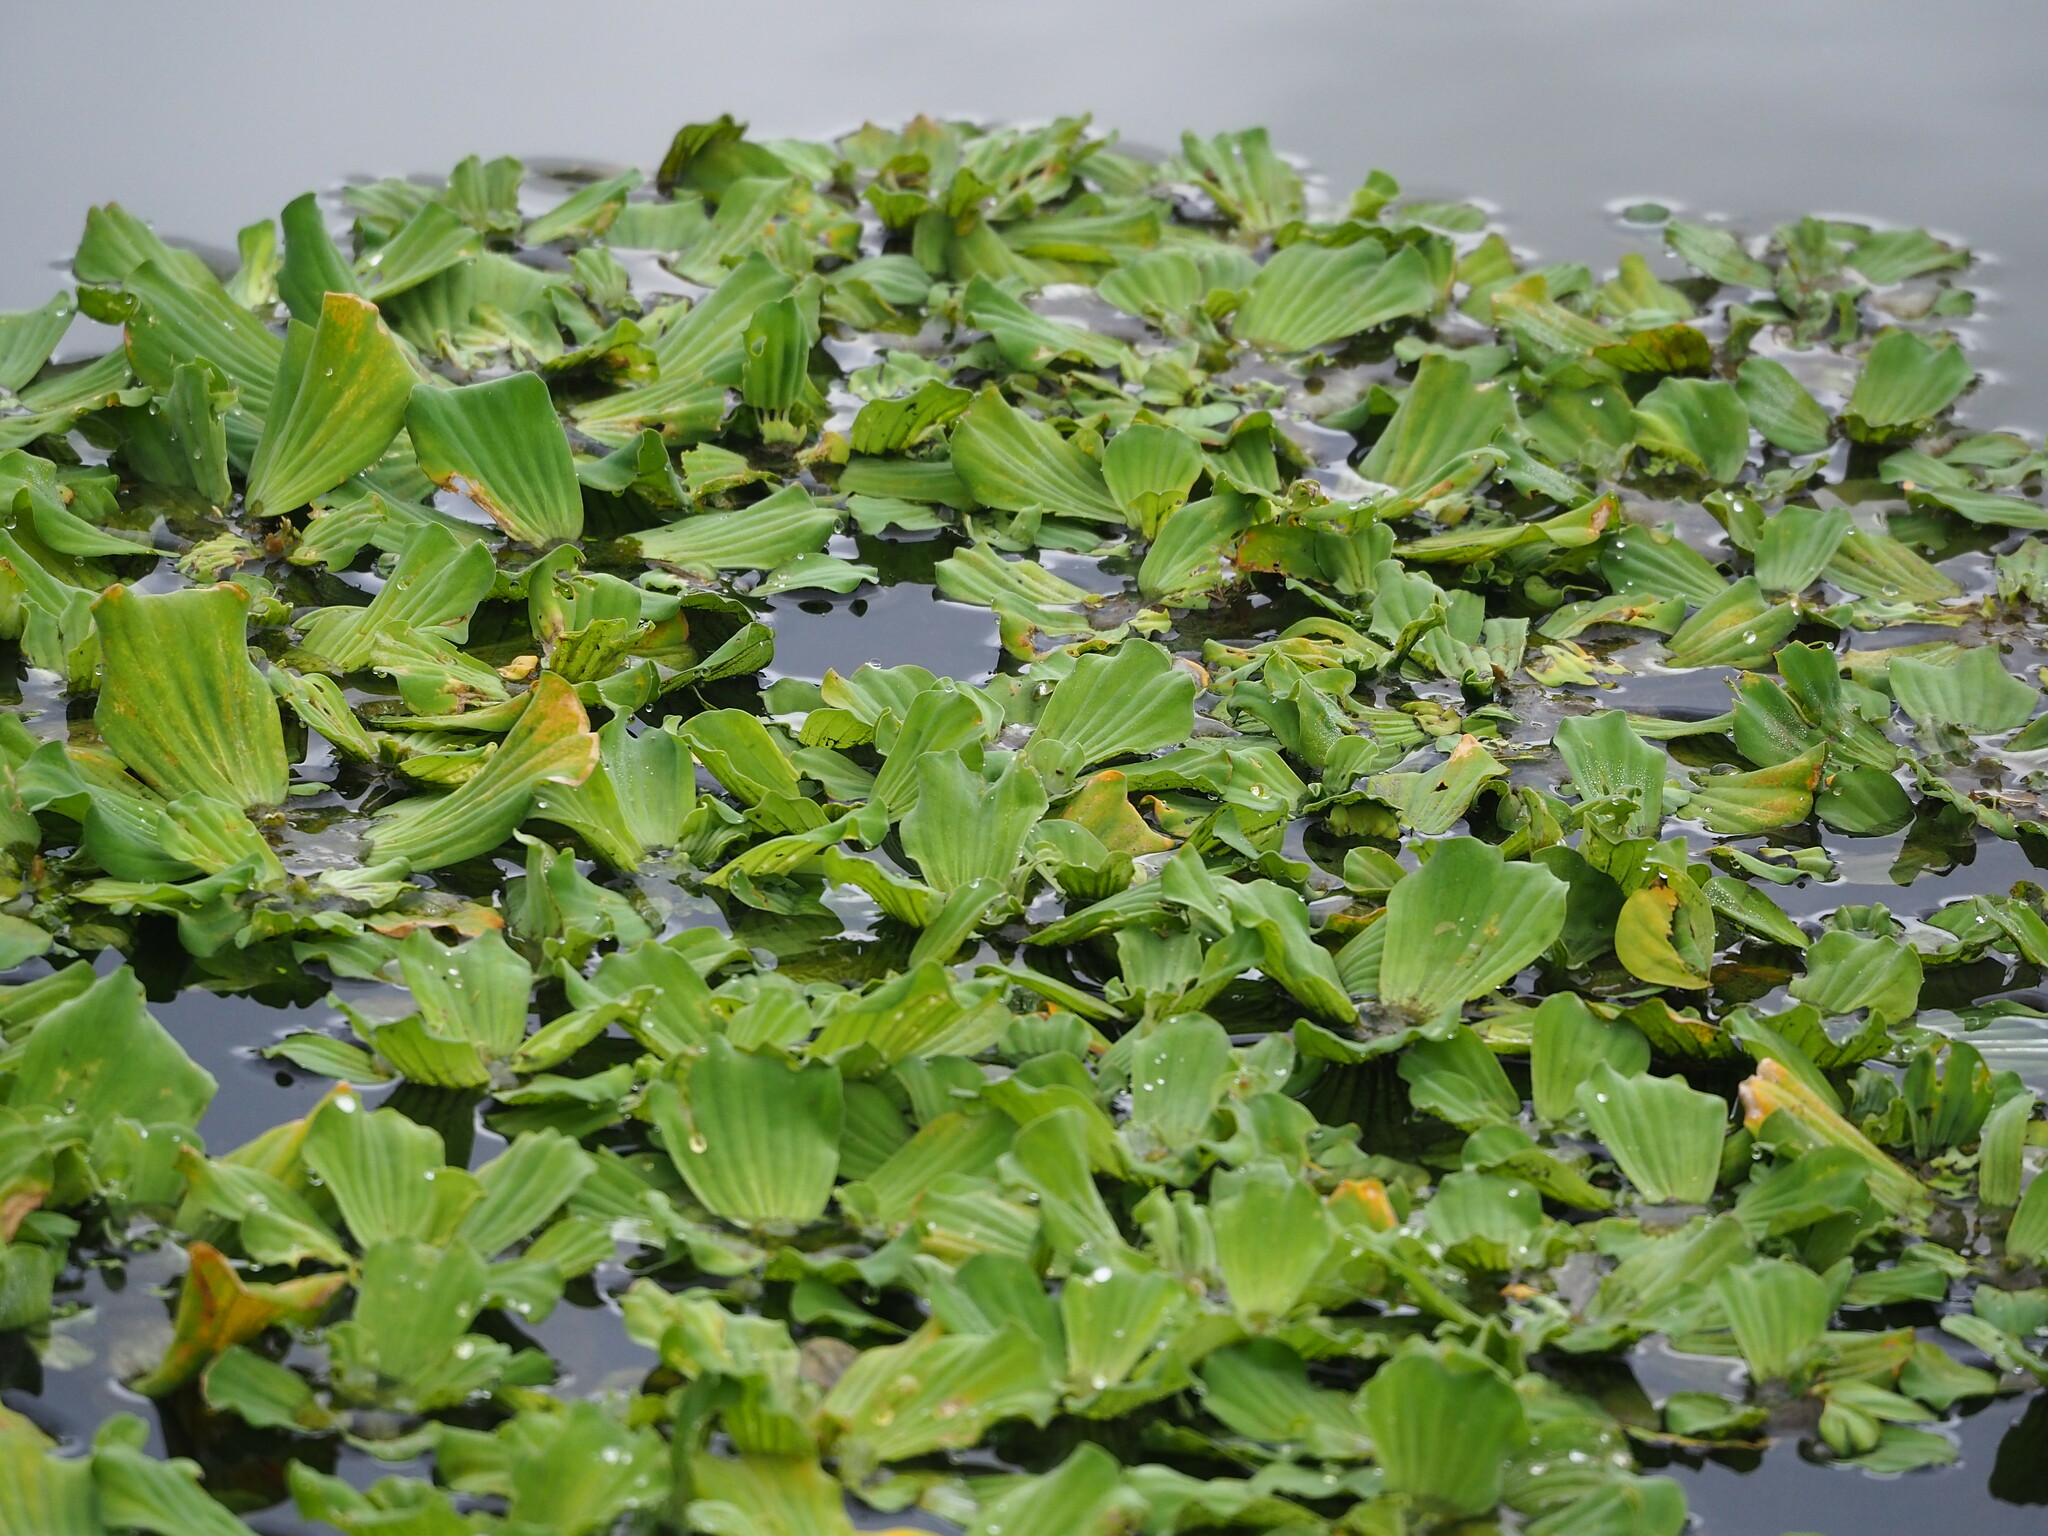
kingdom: Plantae
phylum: Tracheophyta
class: Liliopsida
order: Alismatales
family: Araceae
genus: Pistia
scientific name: Pistia stratiotes
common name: Water lettuce
